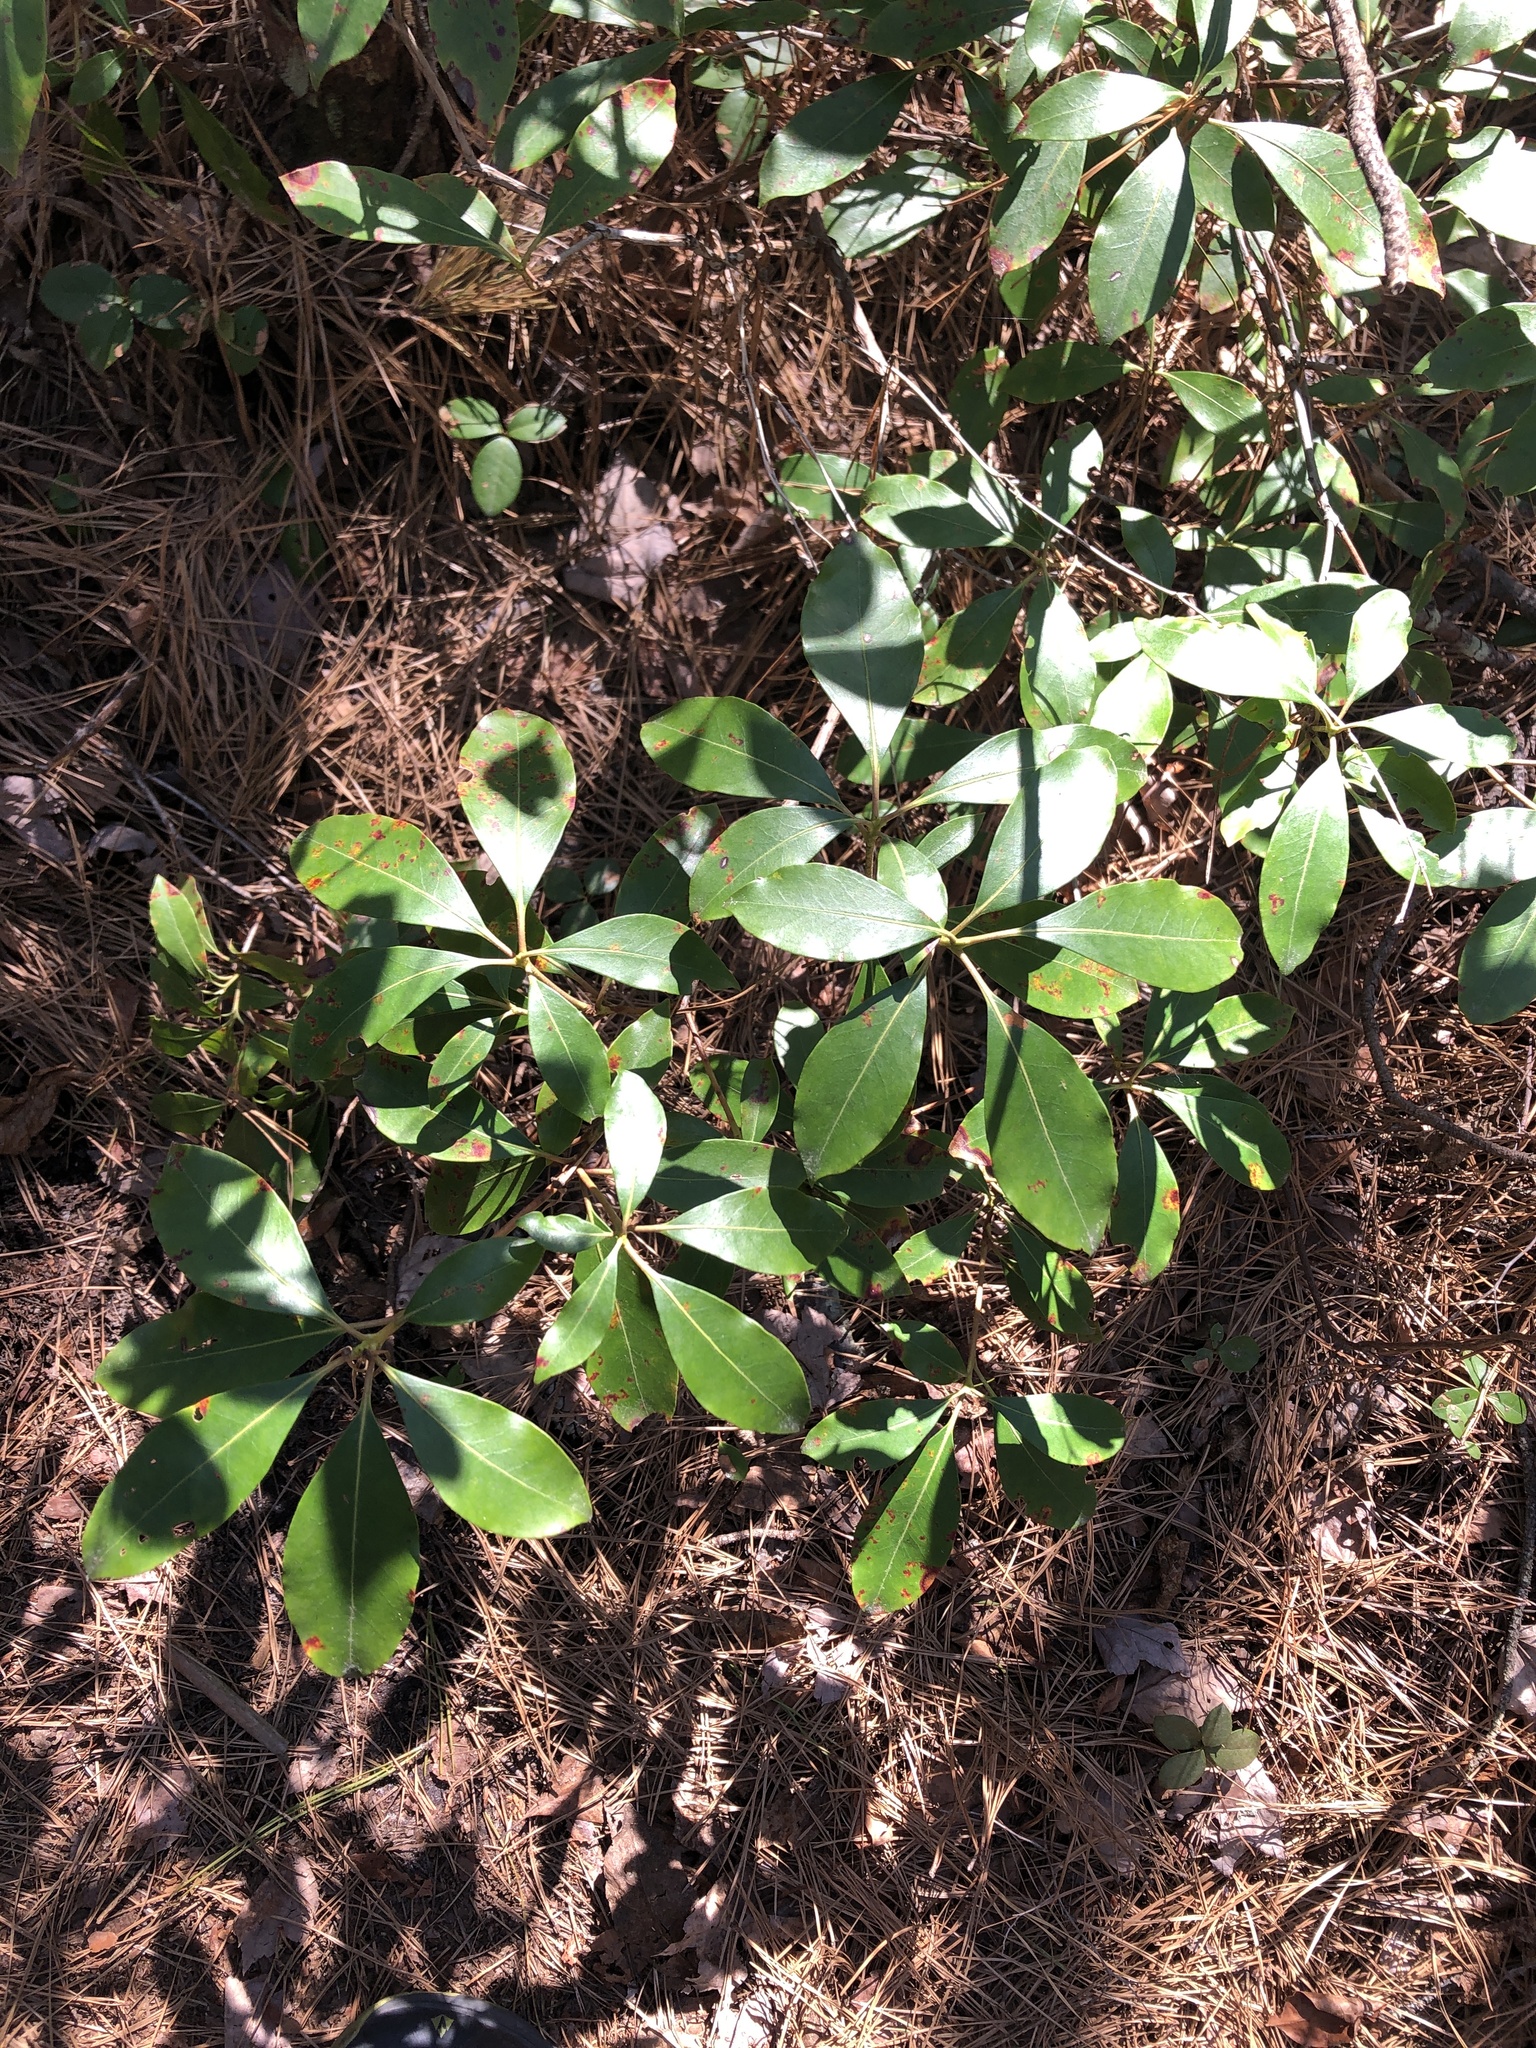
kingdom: Plantae
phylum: Tracheophyta
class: Magnoliopsida
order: Ericales
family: Ericaceae
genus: Kalmia
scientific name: Kalmia latifolia
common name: Mountain-laurel
